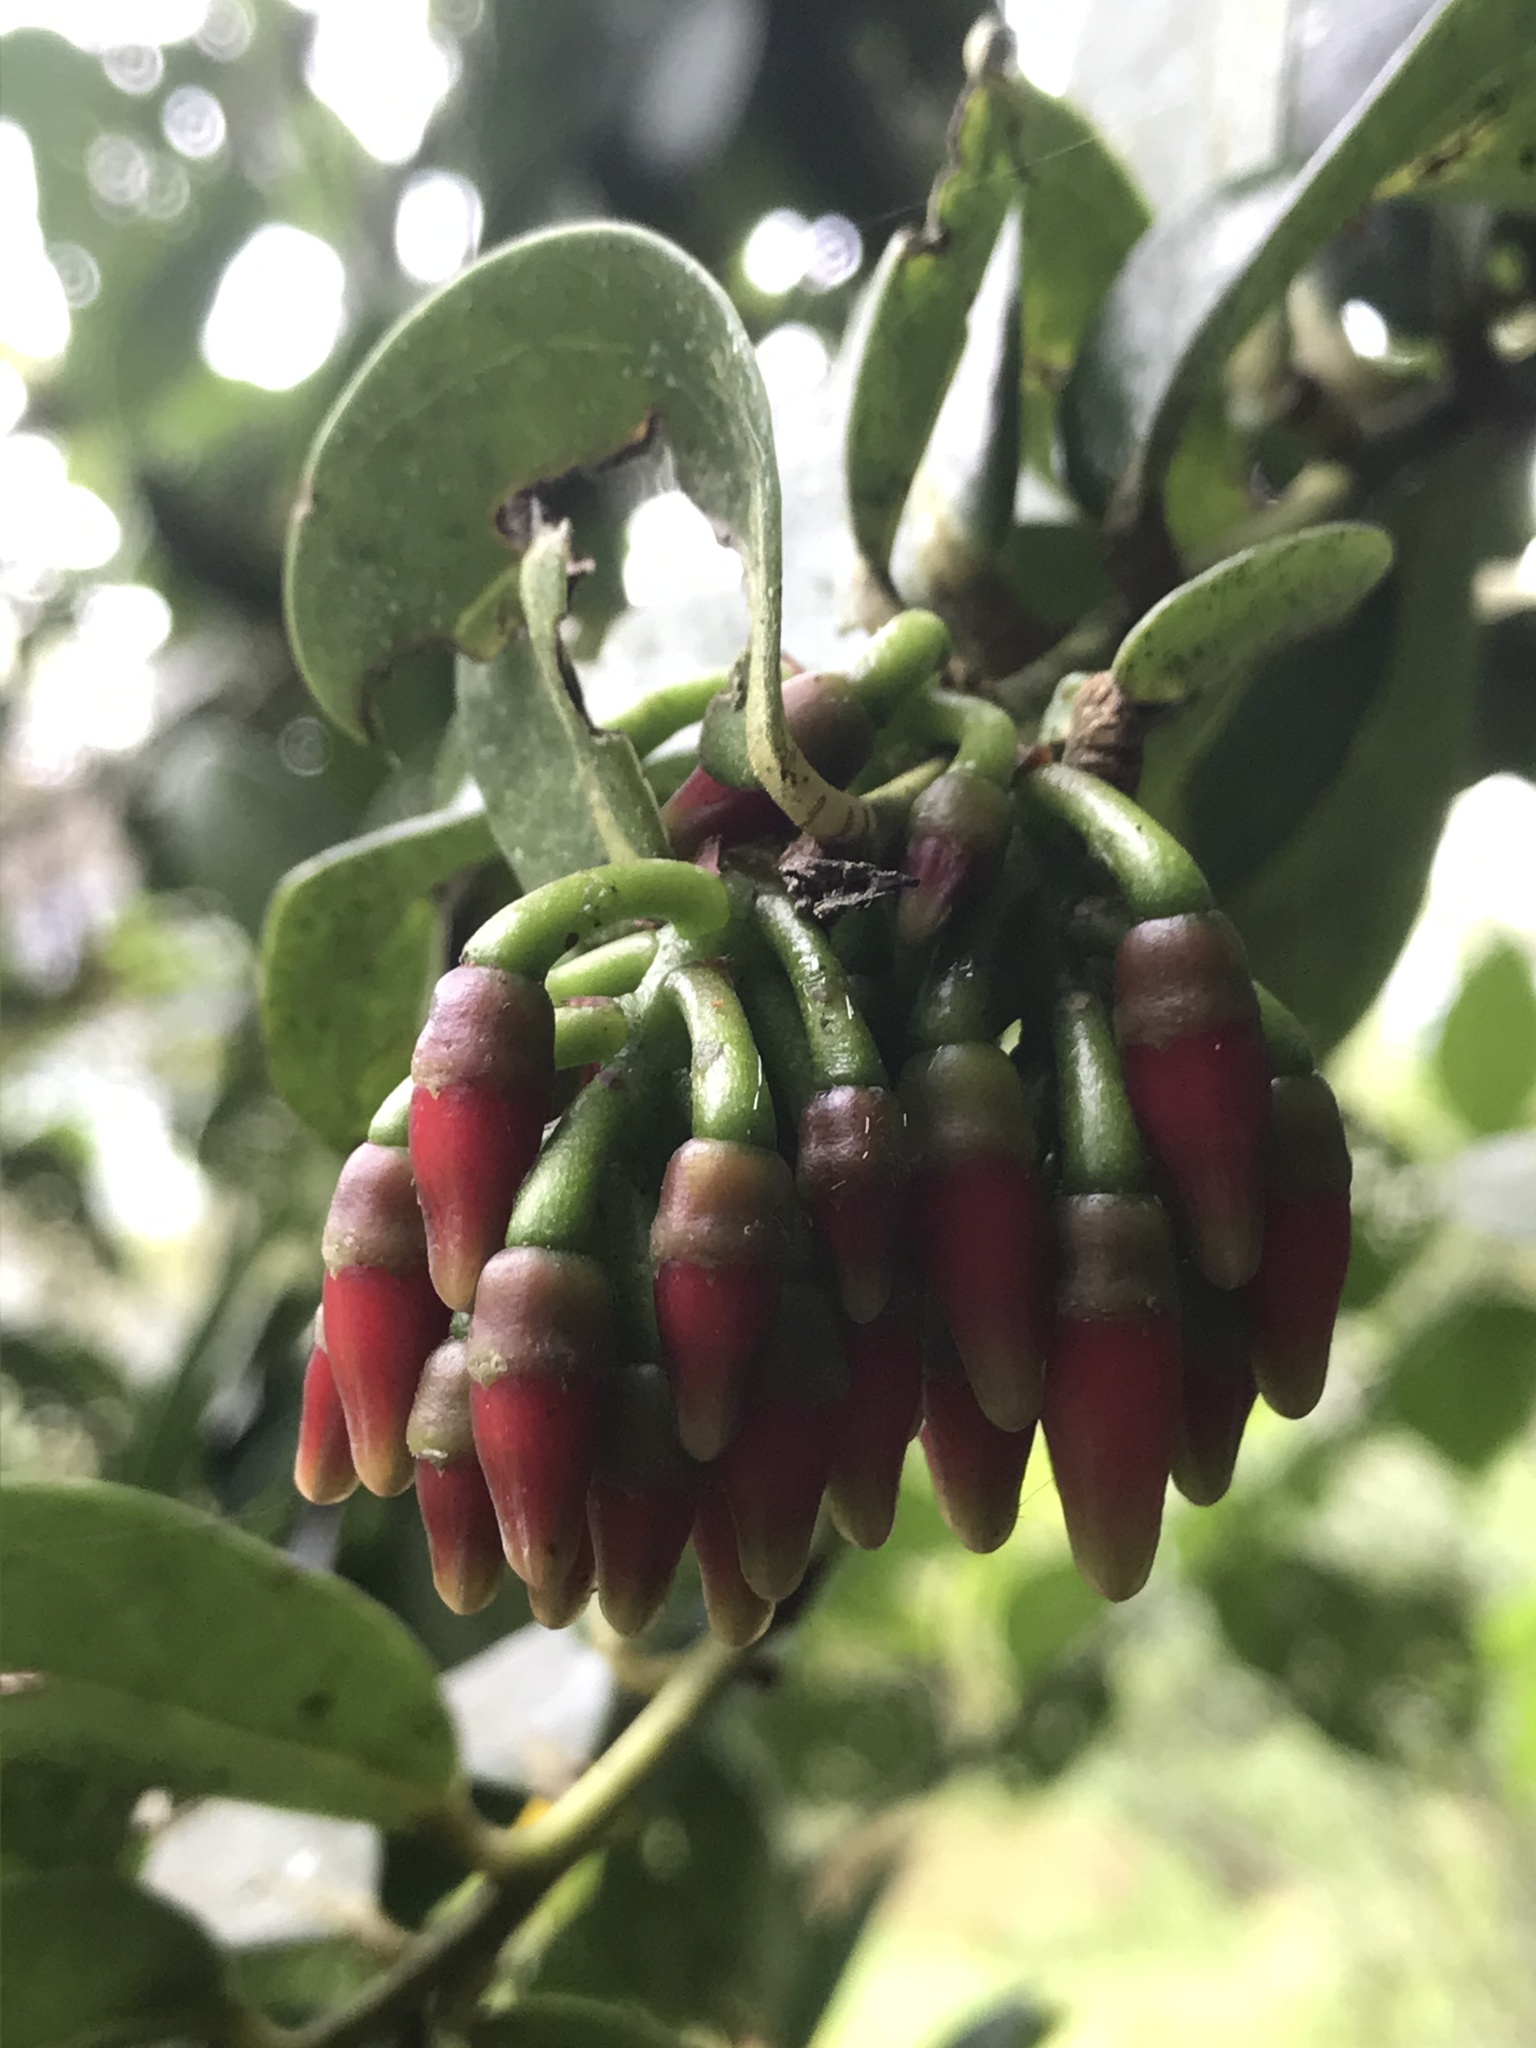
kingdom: Plantae
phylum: Tracheophyta
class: Magnoliopsida
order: Ericales
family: Ericaceae
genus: Macleania
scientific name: Macleania rupestris
